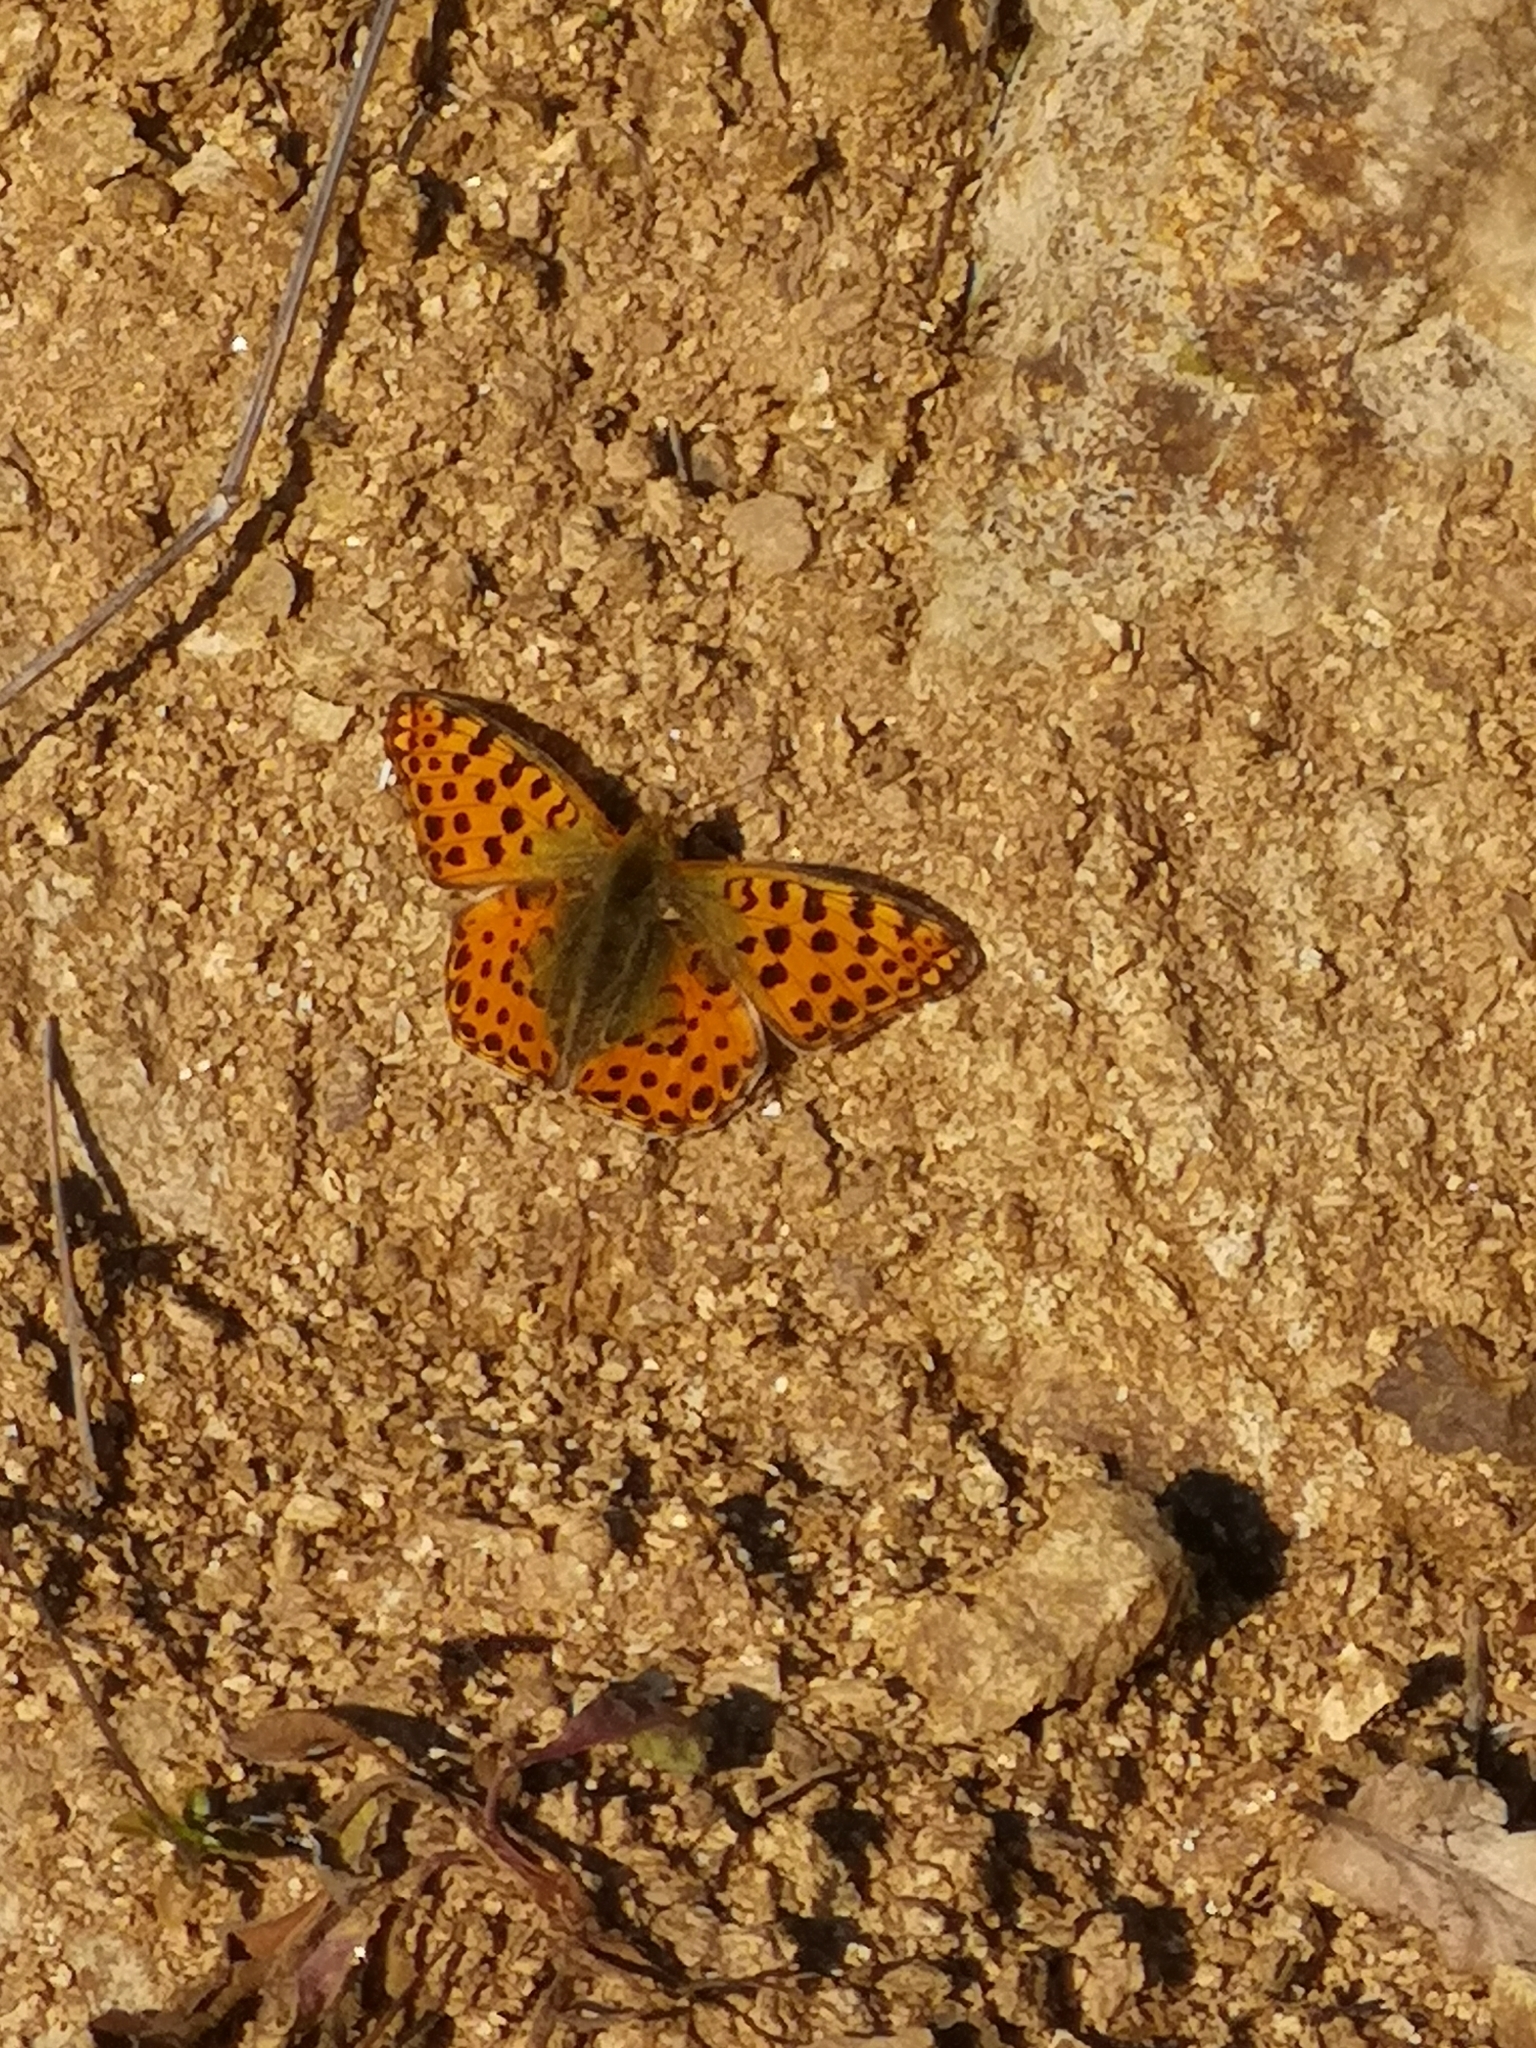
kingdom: Animalia
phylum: Arthropoda
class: Insecta
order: Lepidoptera
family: Nymphalidae
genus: Issoria
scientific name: Issoria lathonia
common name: Queen of spain fritillary
